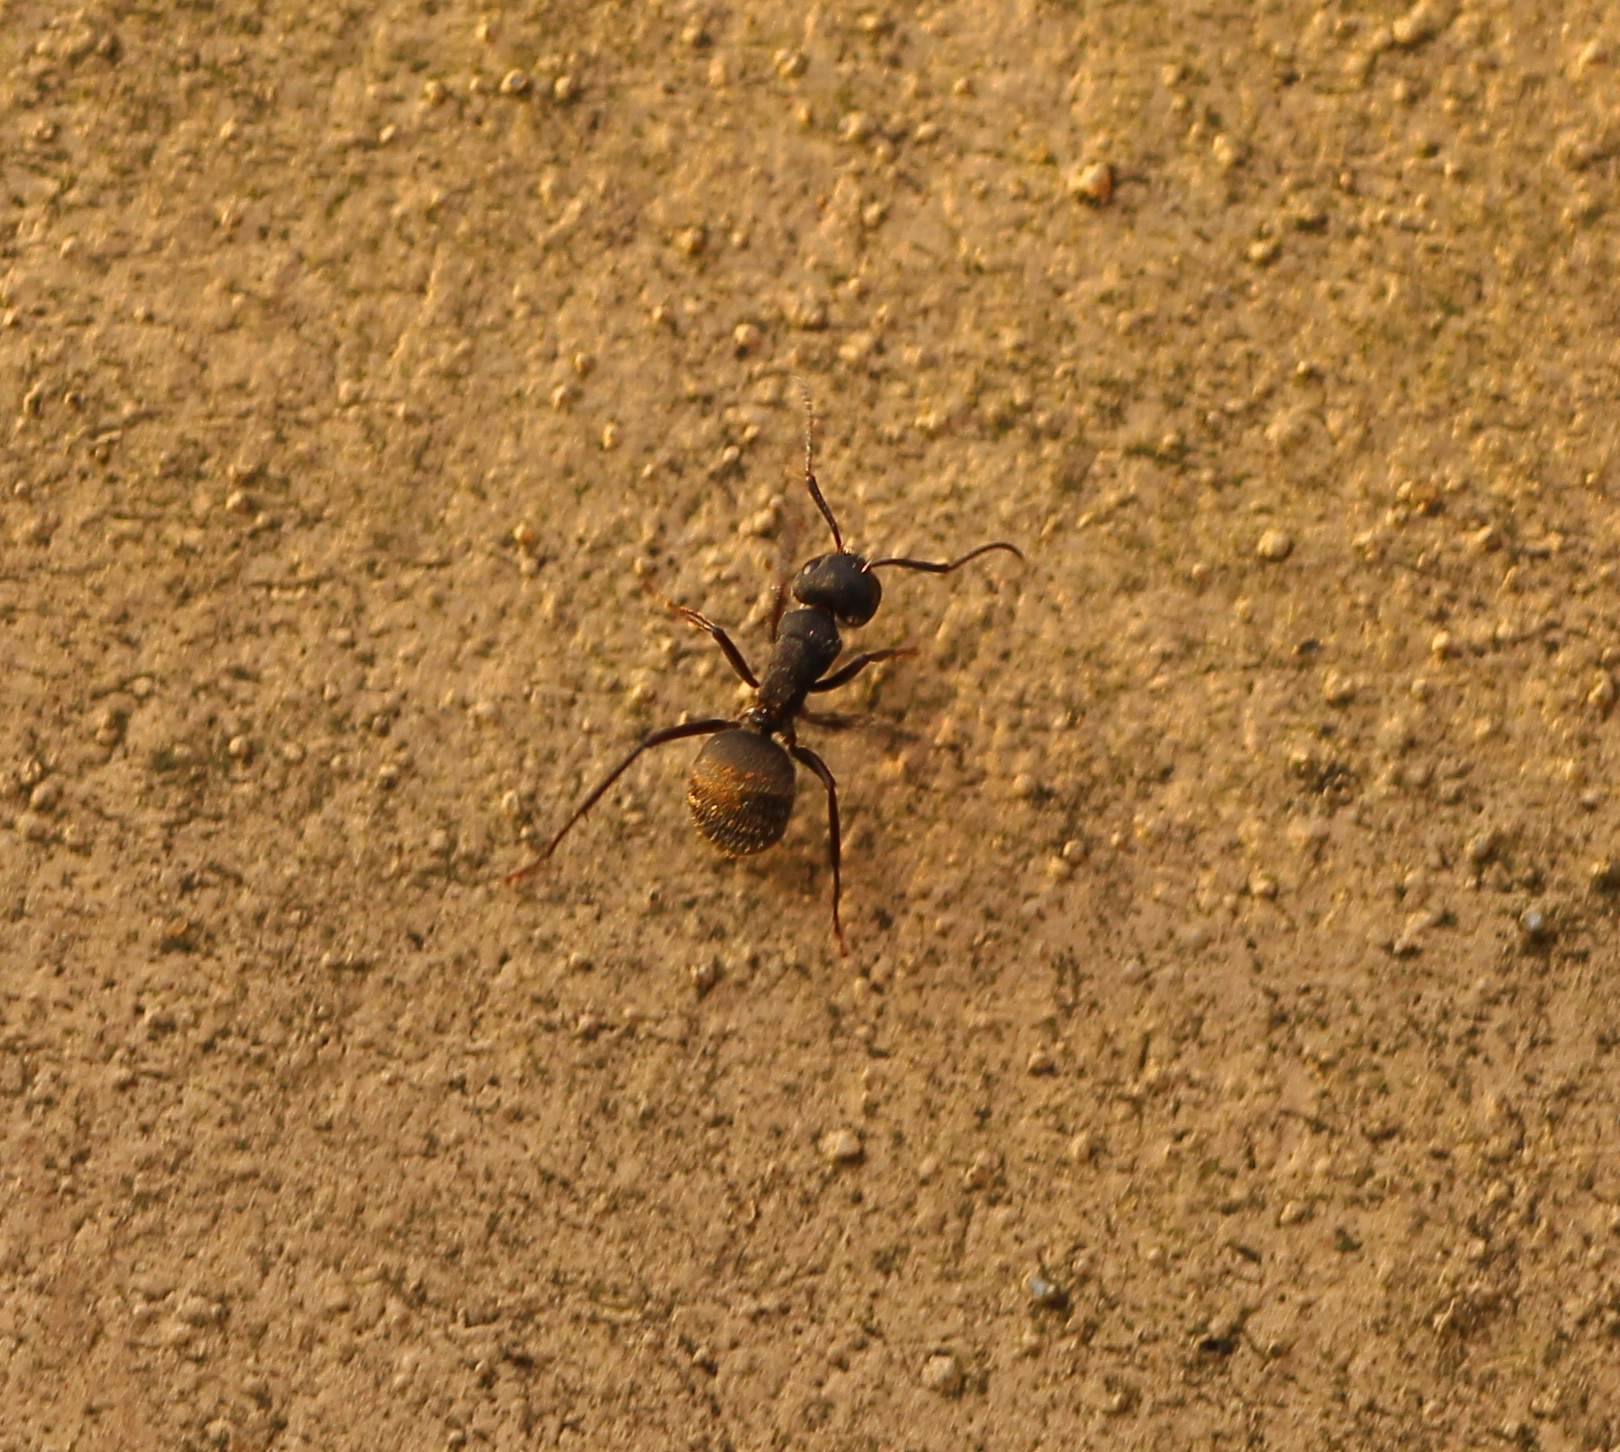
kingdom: Animalia
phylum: Arthropoda
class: Insecta
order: Hymenoptera
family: Formicidae
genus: Camponotus
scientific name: Camponotus mus
